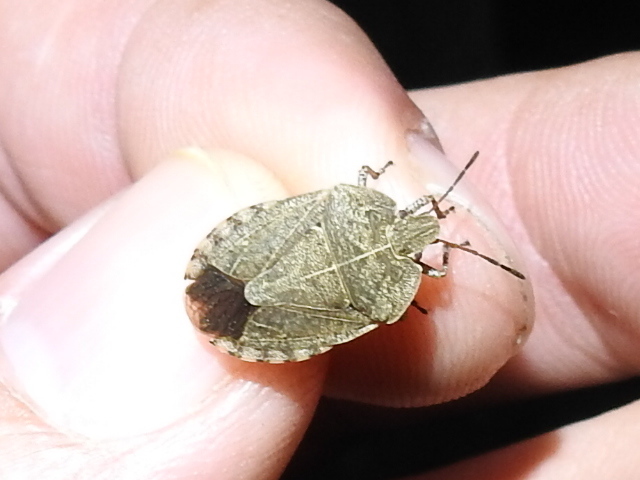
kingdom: Animalia
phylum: Arthropoda
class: Insecta
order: Hemiptera
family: Pentatomidae
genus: Menecles
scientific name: Menecles insertus
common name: Elf shoe stink bug
